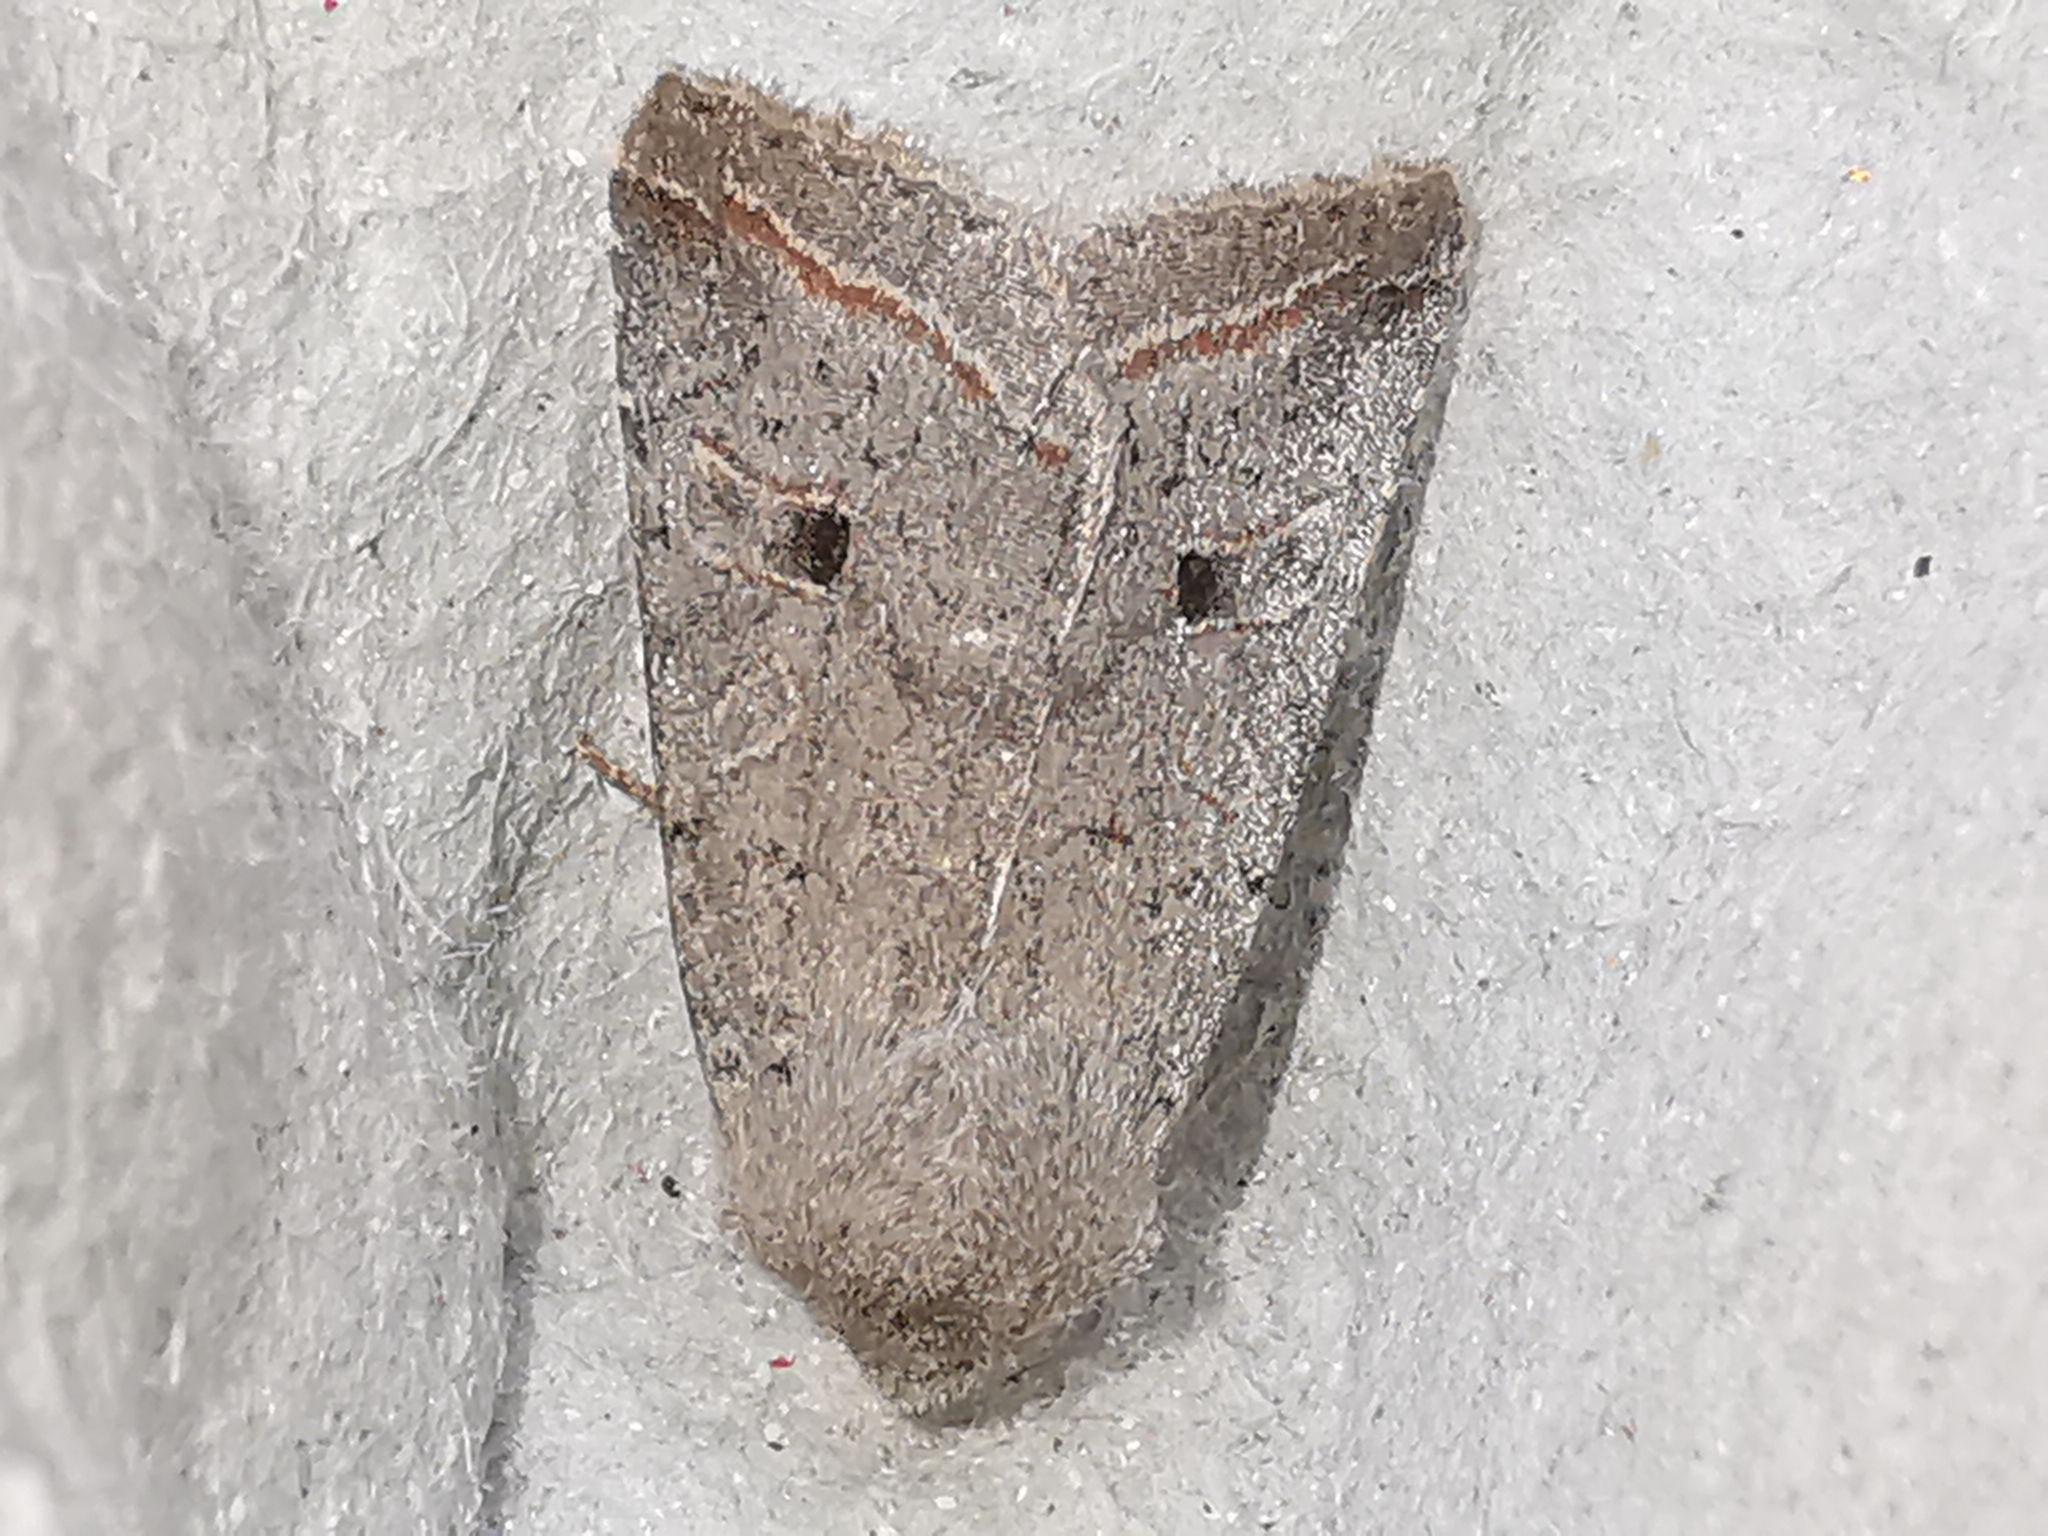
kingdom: Animalia
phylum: Arthropoda
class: Insecta
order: Lepidoptera
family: Noctuidae
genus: Agrochola
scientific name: Agrochola lota
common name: Red-line quaker
